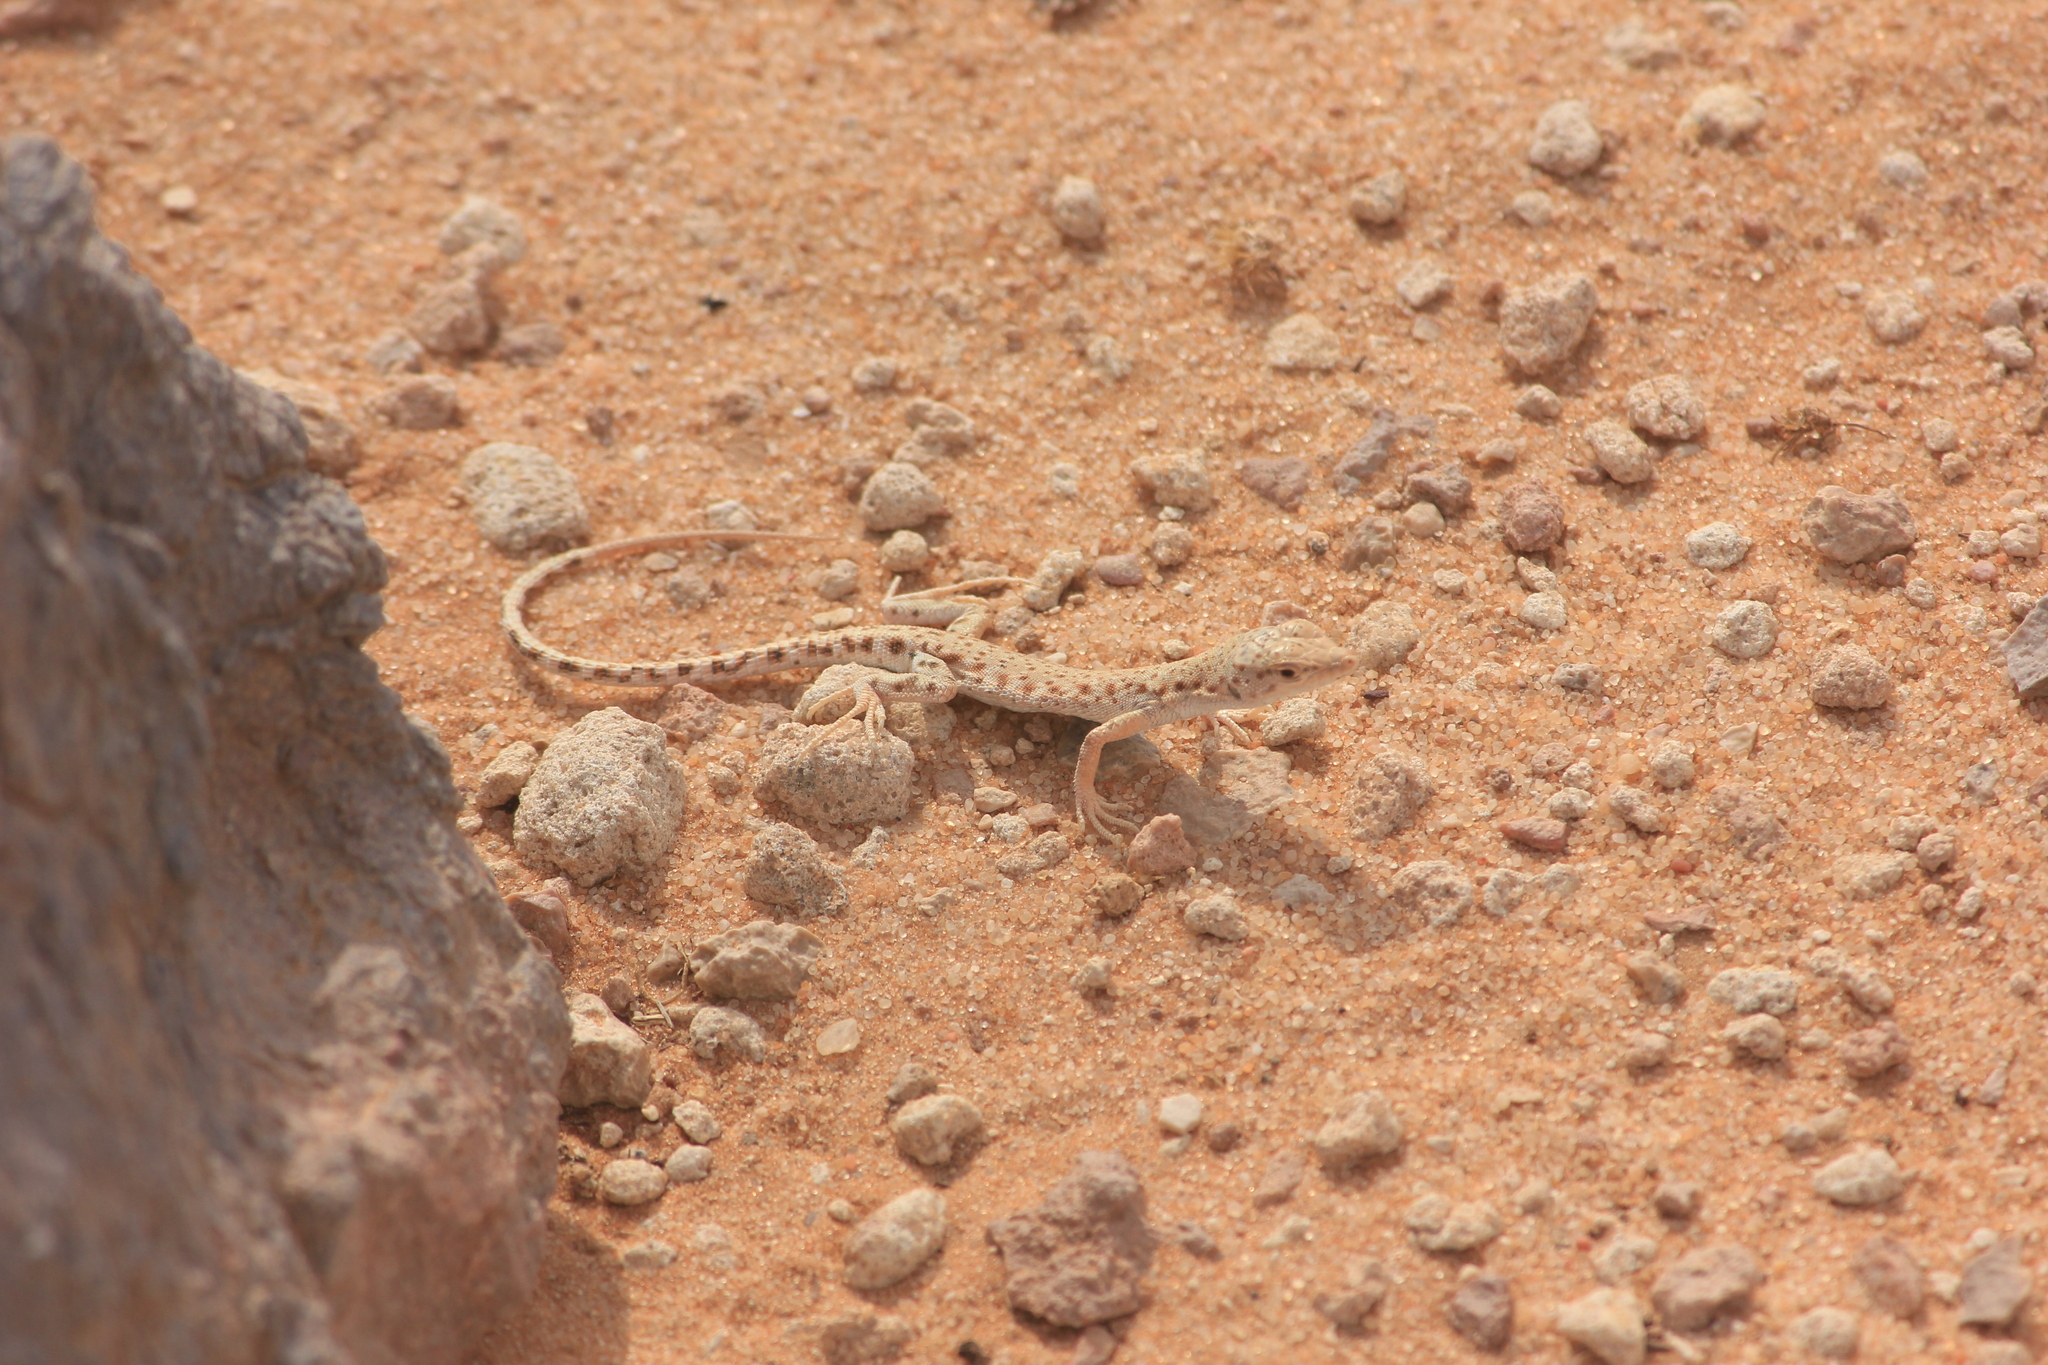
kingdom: Animalia
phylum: Chordata
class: Squamata
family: Lacertidae
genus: Mesalina
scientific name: Mesalina brevirostris
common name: Blanford's short-nosed desert lizard
